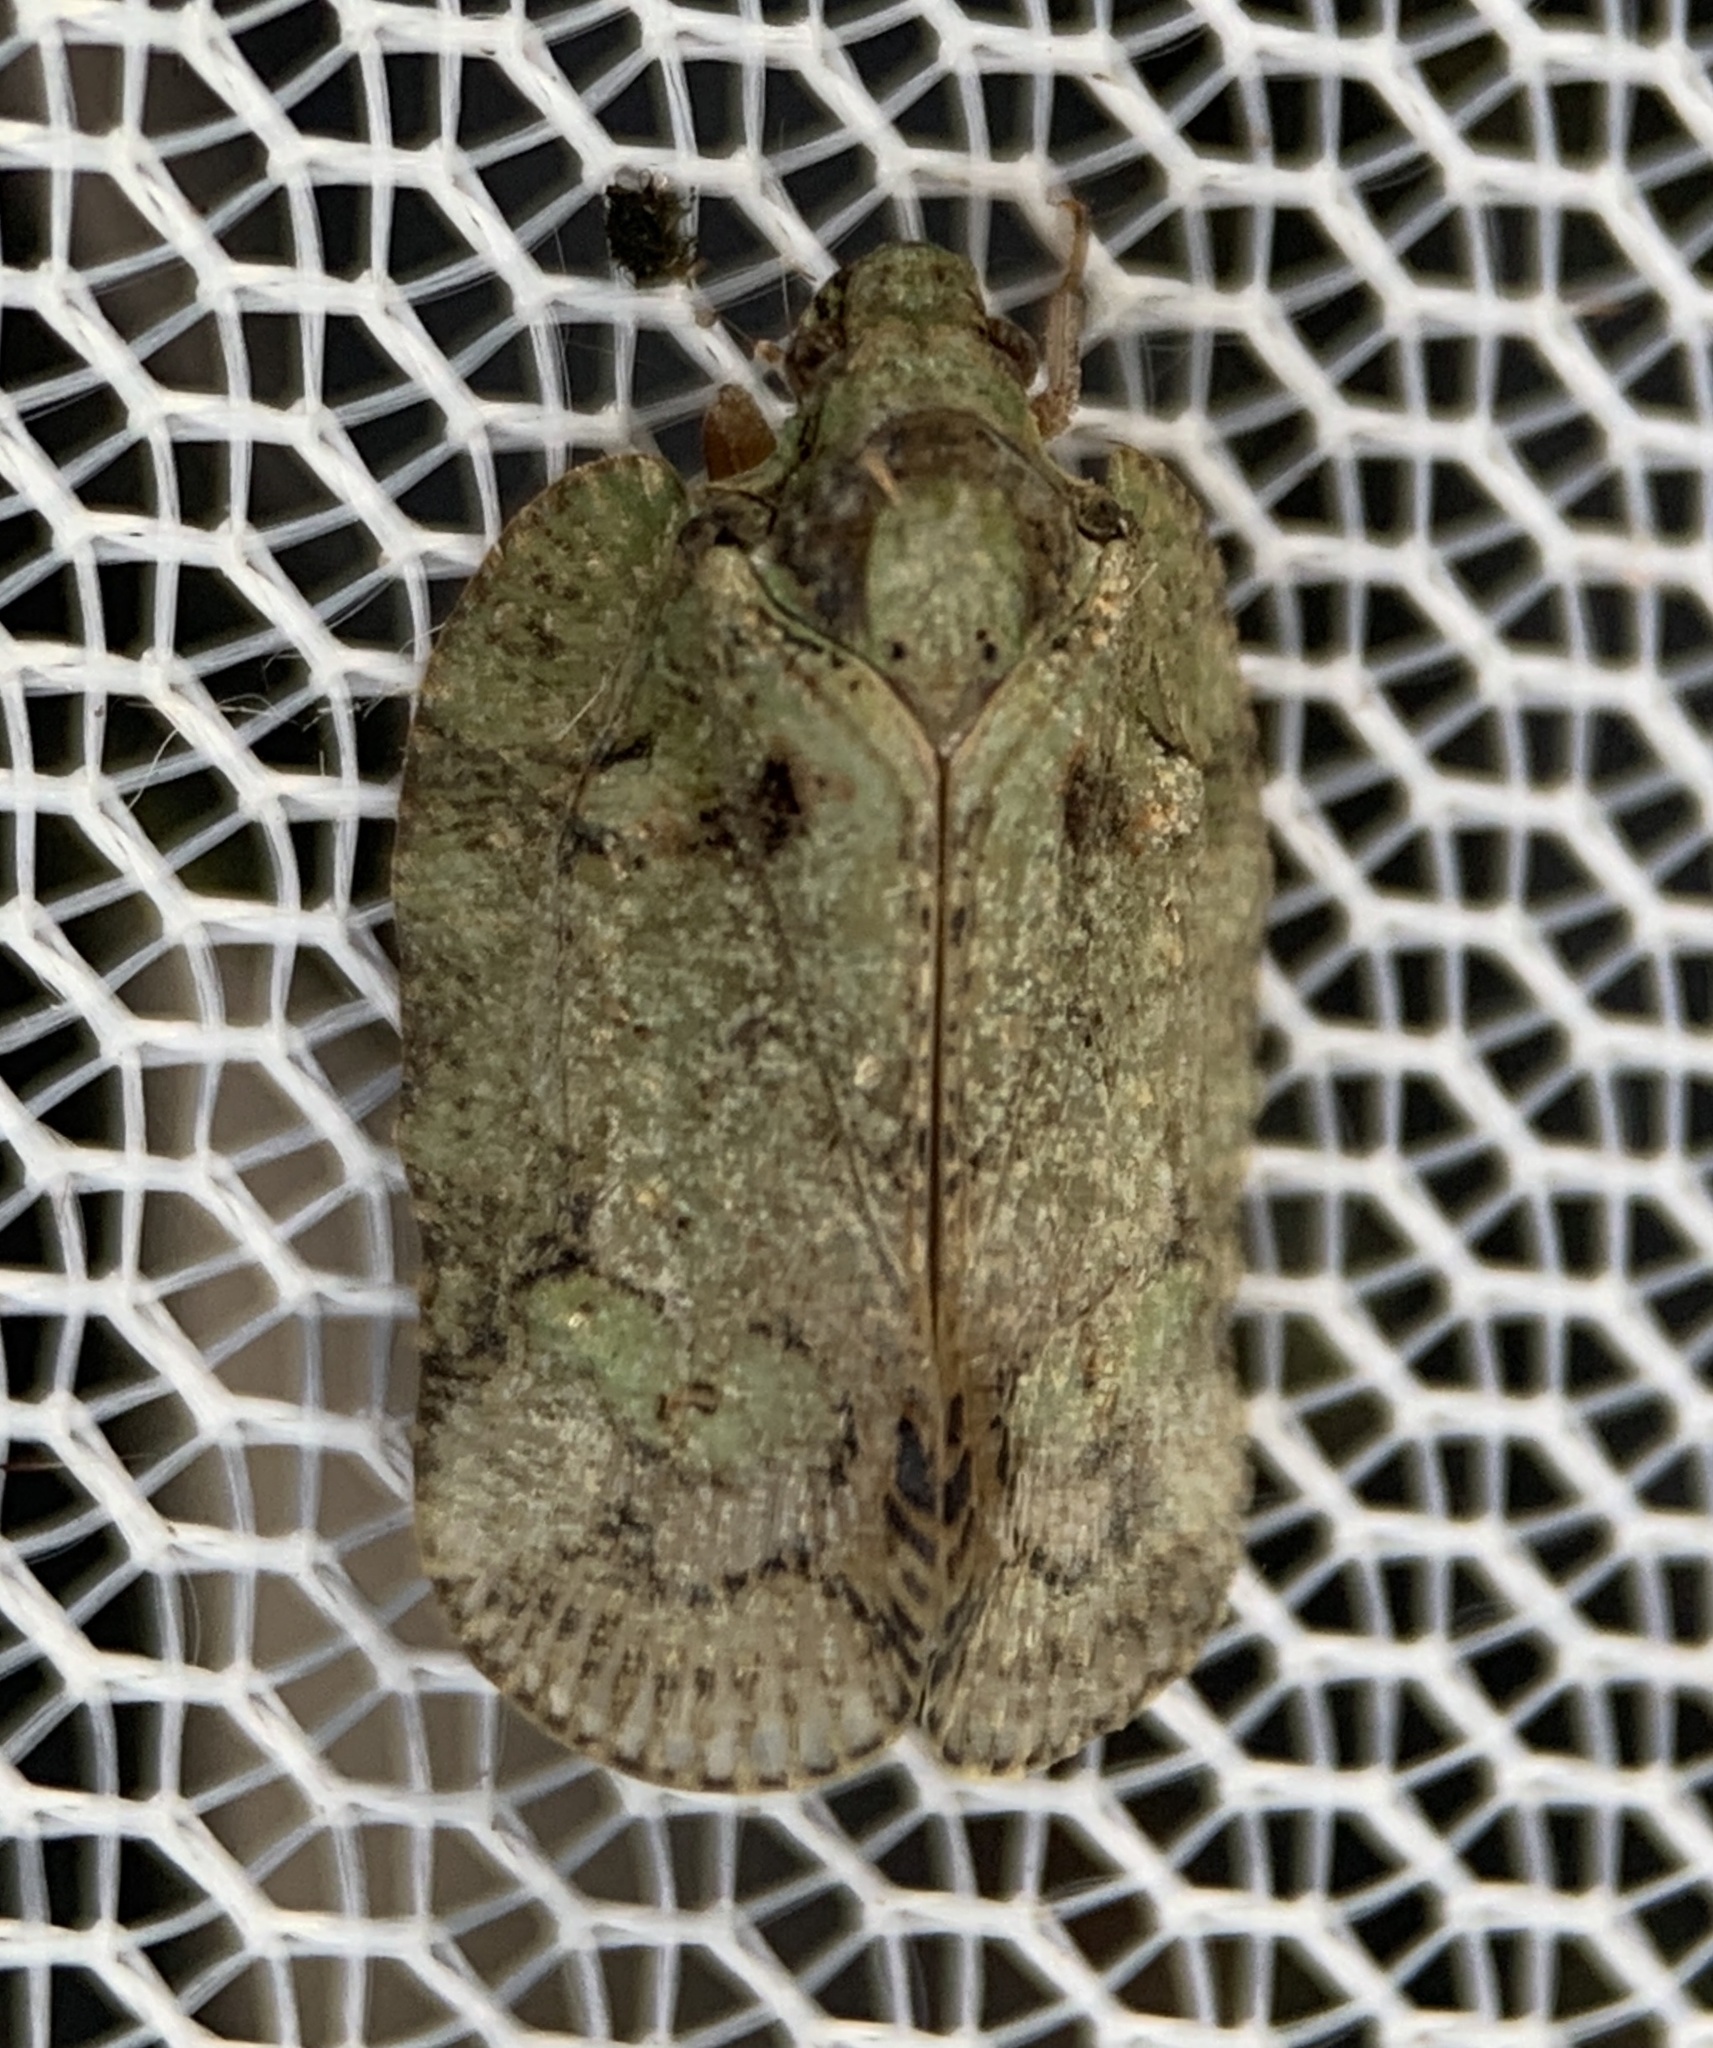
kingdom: Animalia
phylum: Arthropoda
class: Insecta
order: Hemiptera
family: Flatidae
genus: Flataloides
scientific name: Flataloides scabrosa
